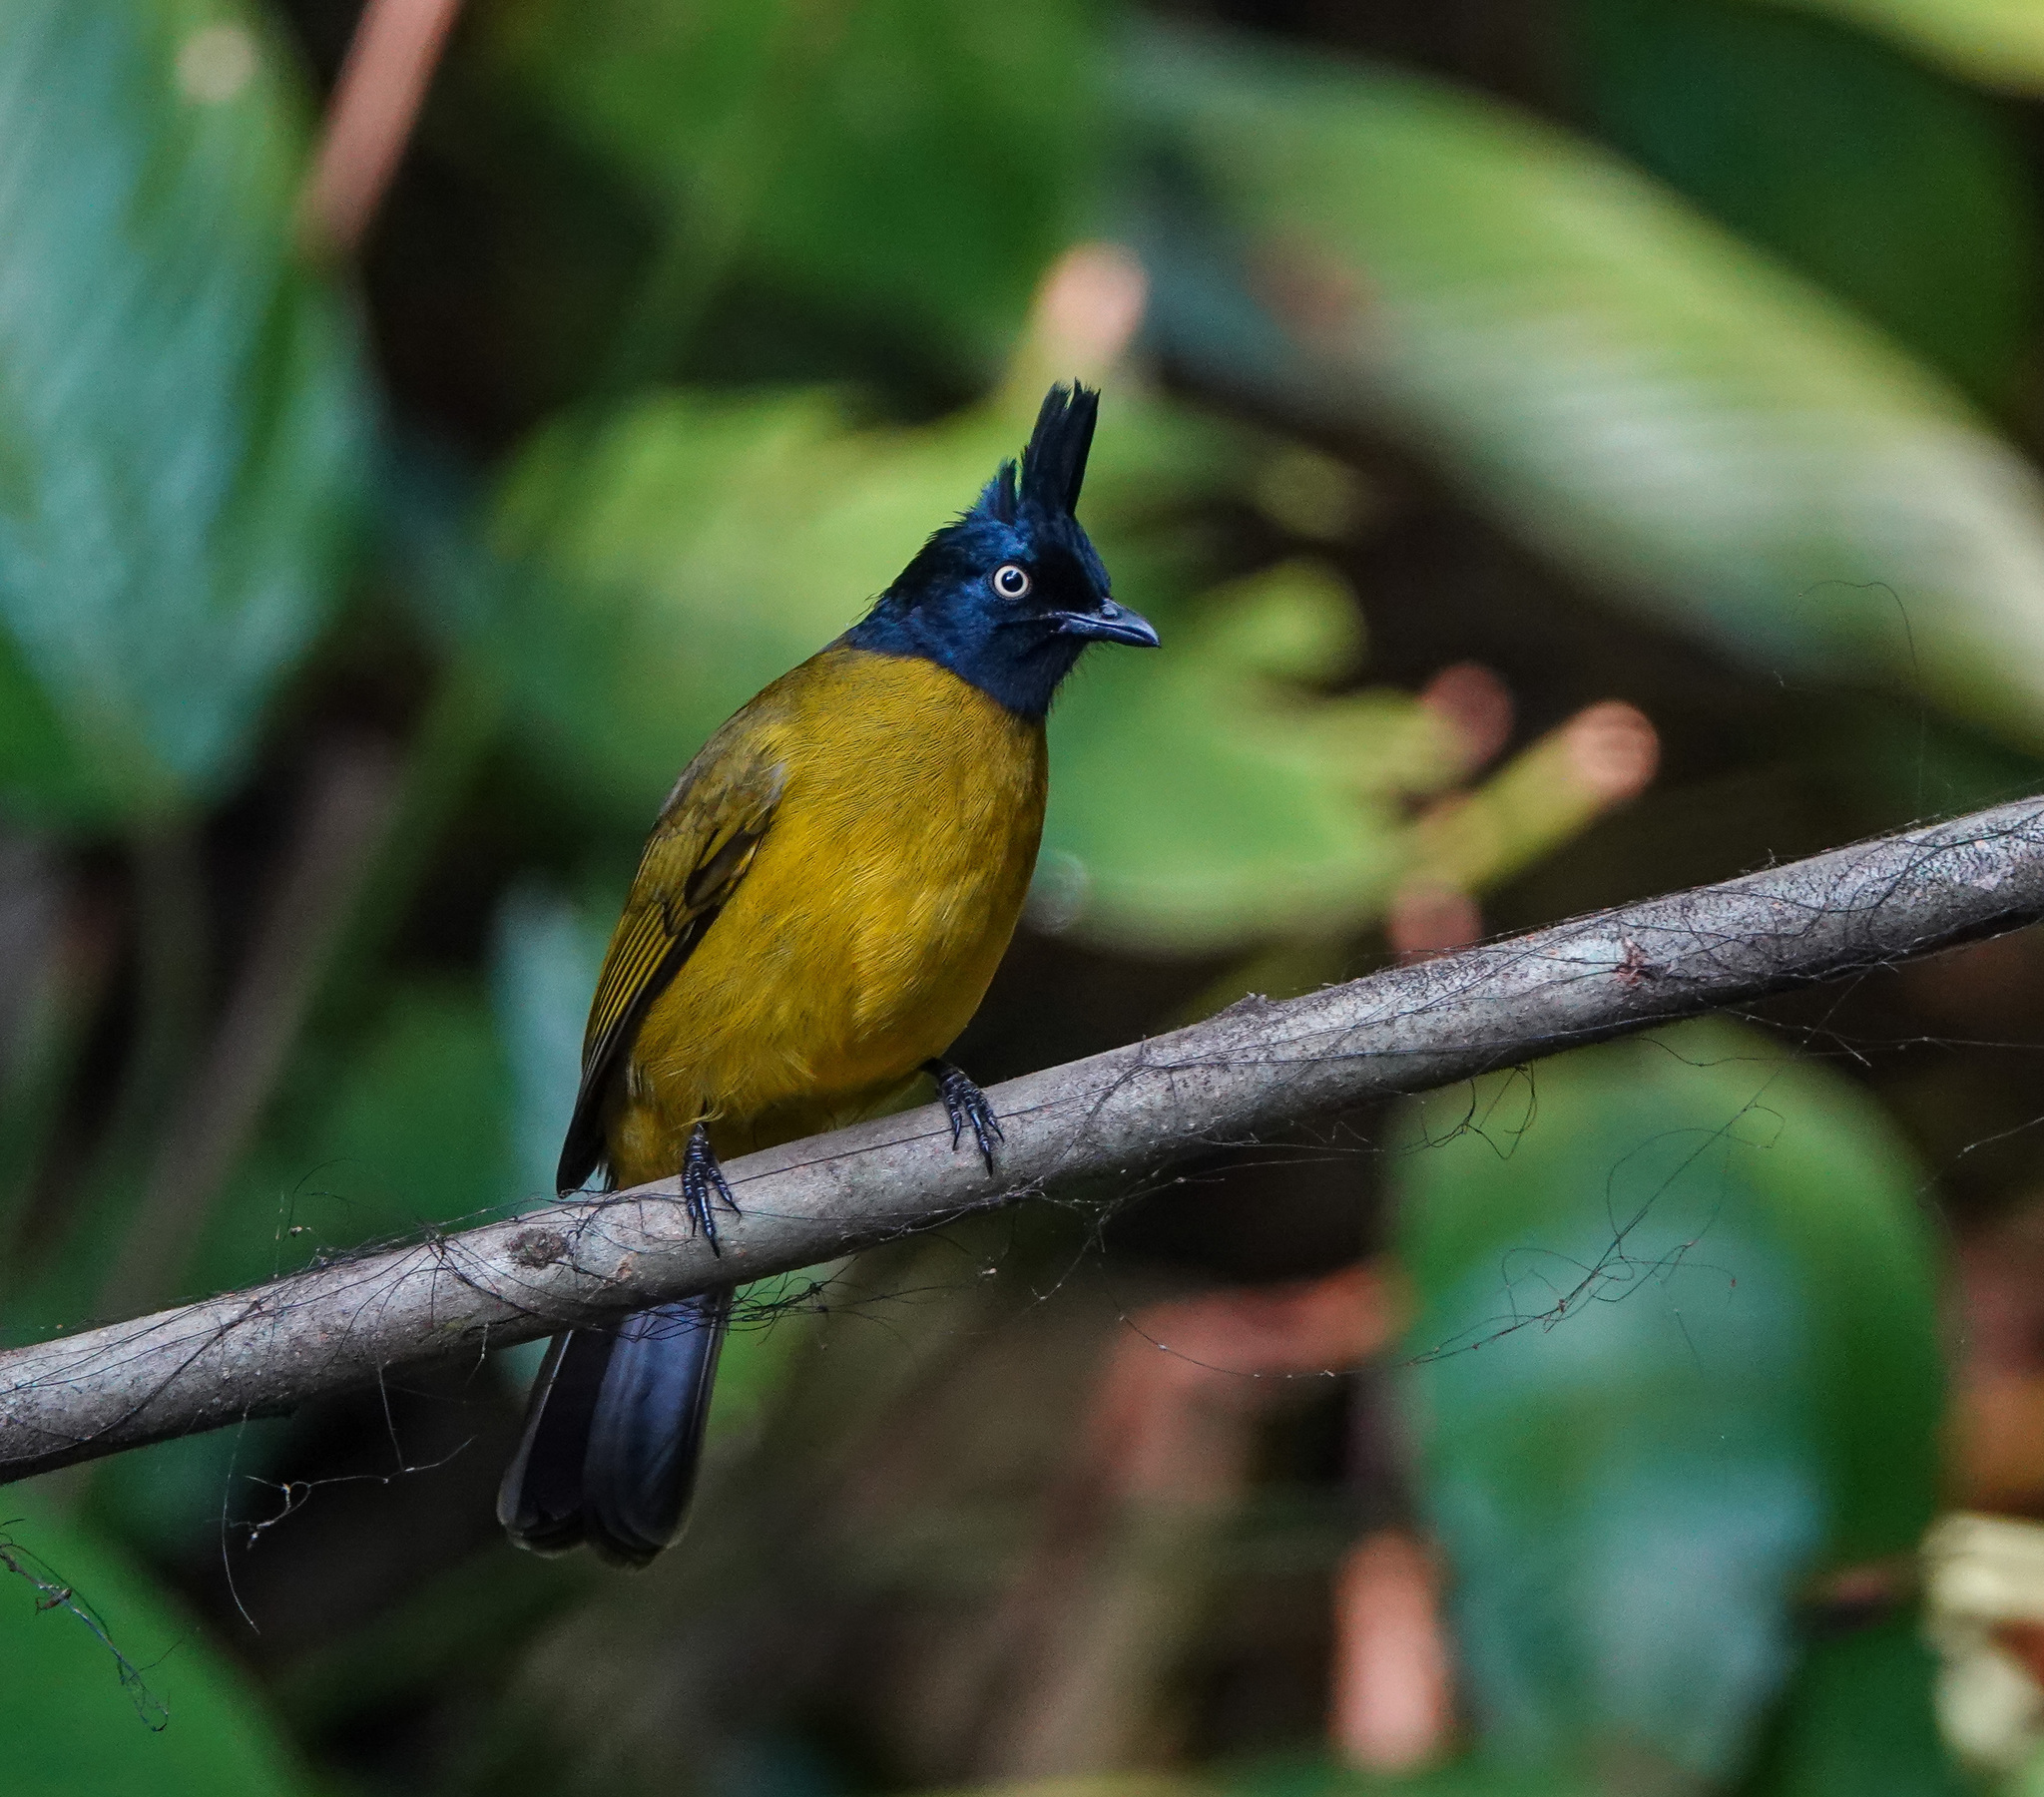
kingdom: Animalia
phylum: Chordata
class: Aves
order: Passeriformes
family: Pycnonotidae
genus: Pycnonotus
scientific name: Pycnonotus flaviventris
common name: Black-crested bulbul
